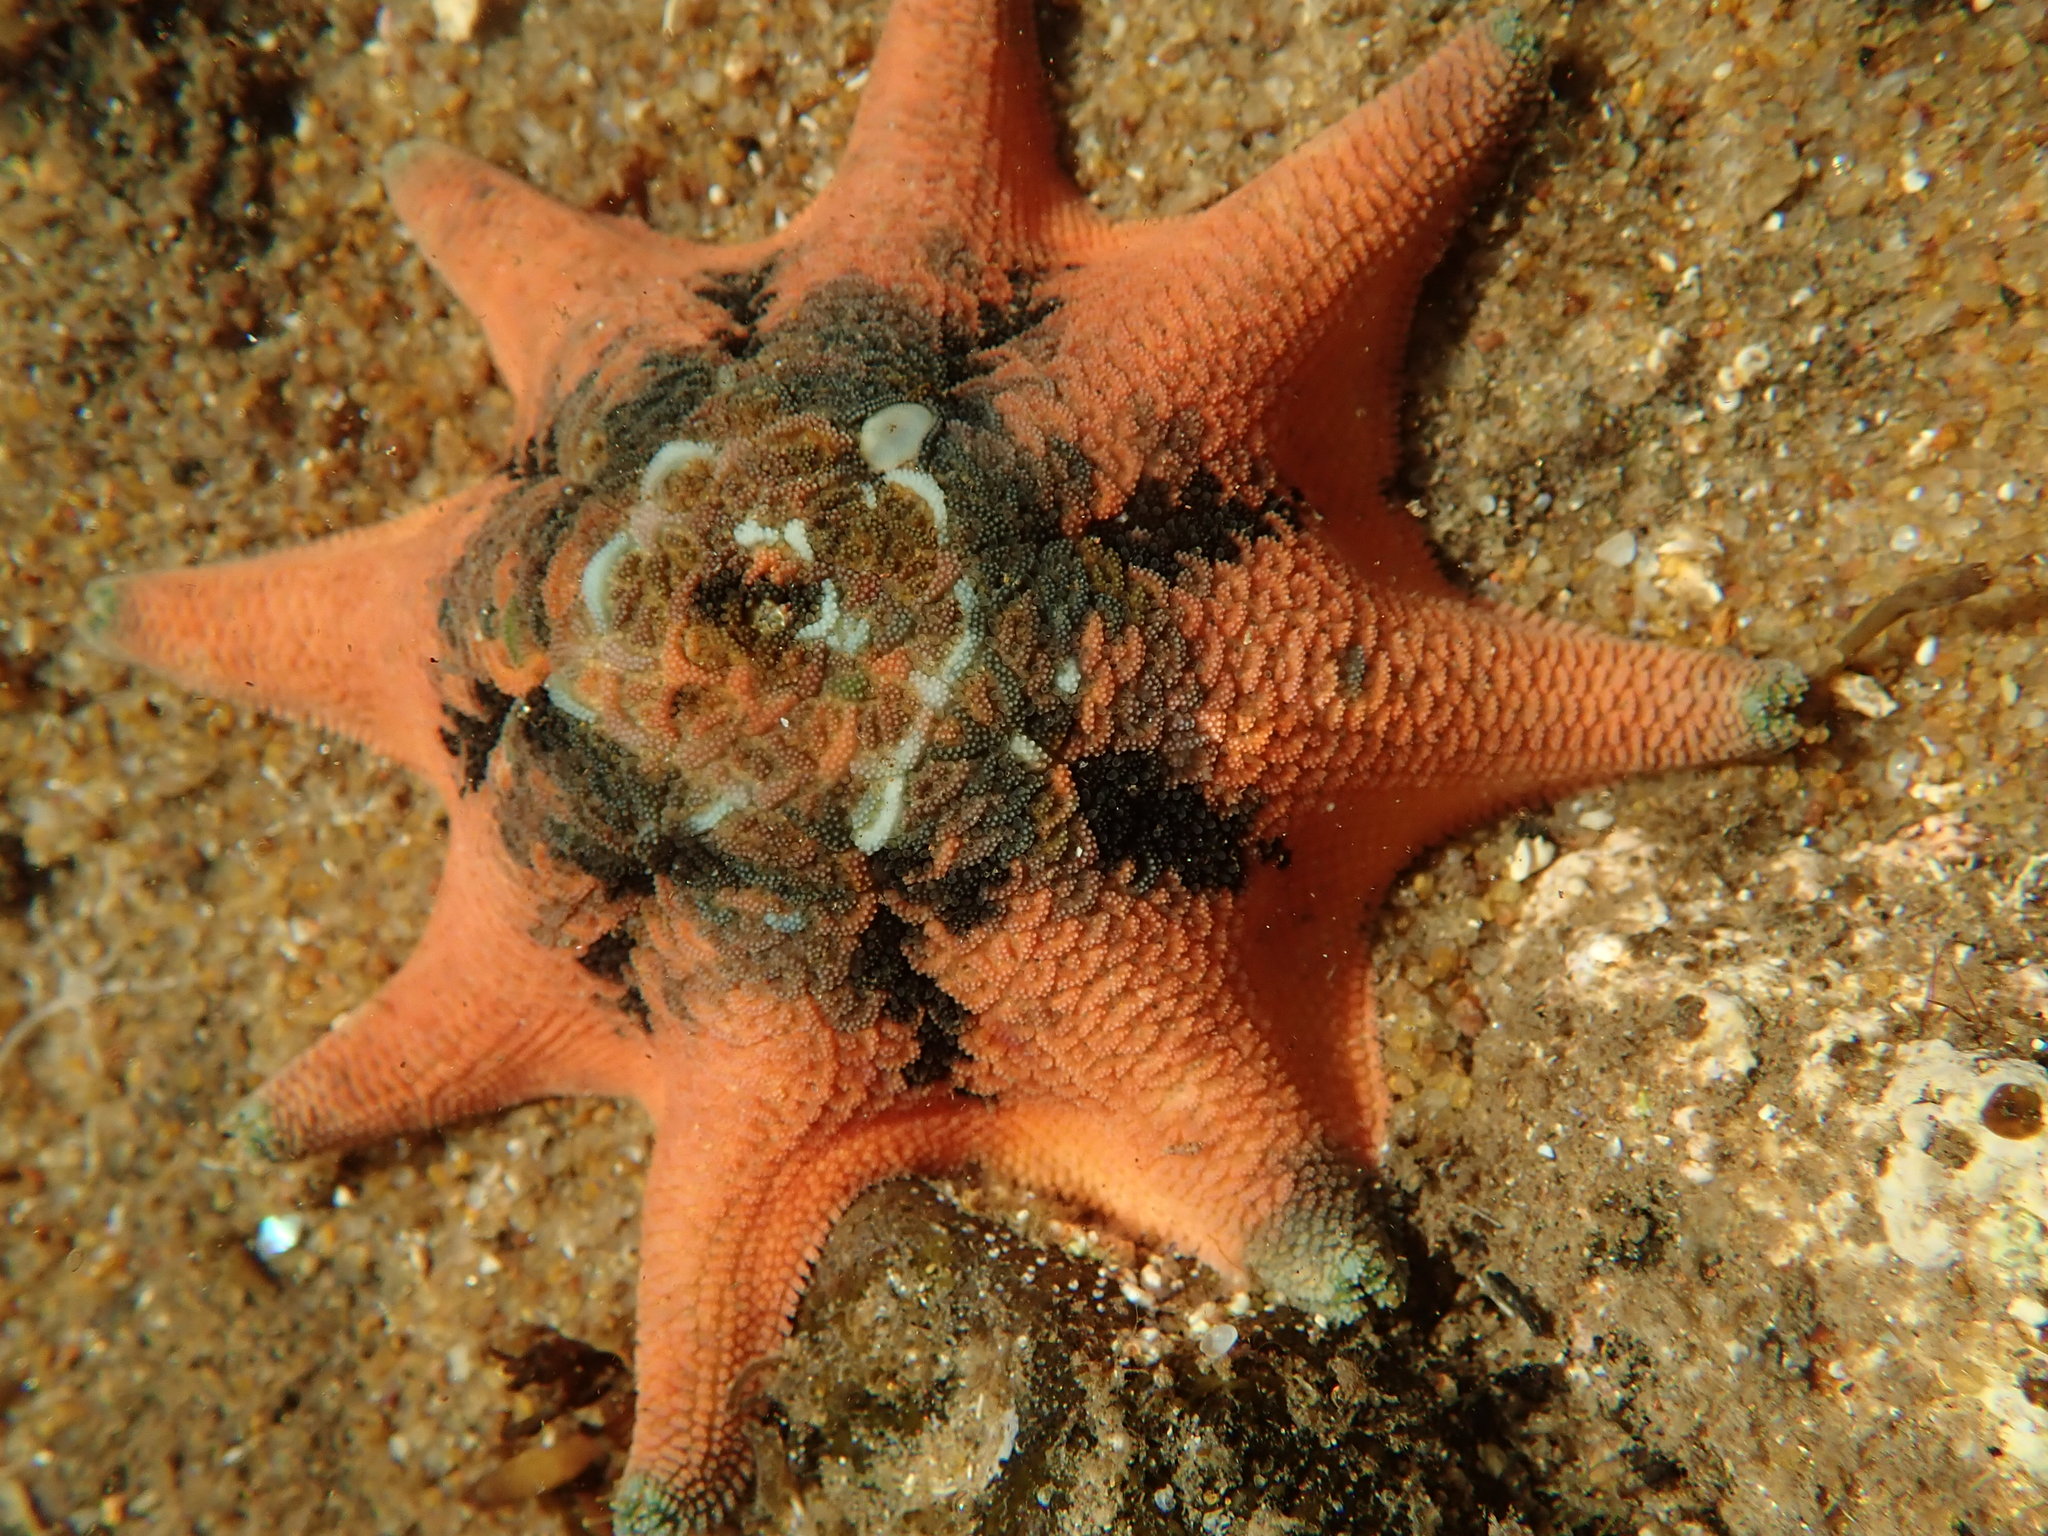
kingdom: Animalia
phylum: Echinodermata
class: Asteroidea
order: Valvatida
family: Asterinidae
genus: Meridiastra
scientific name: Meridiastra calcar
